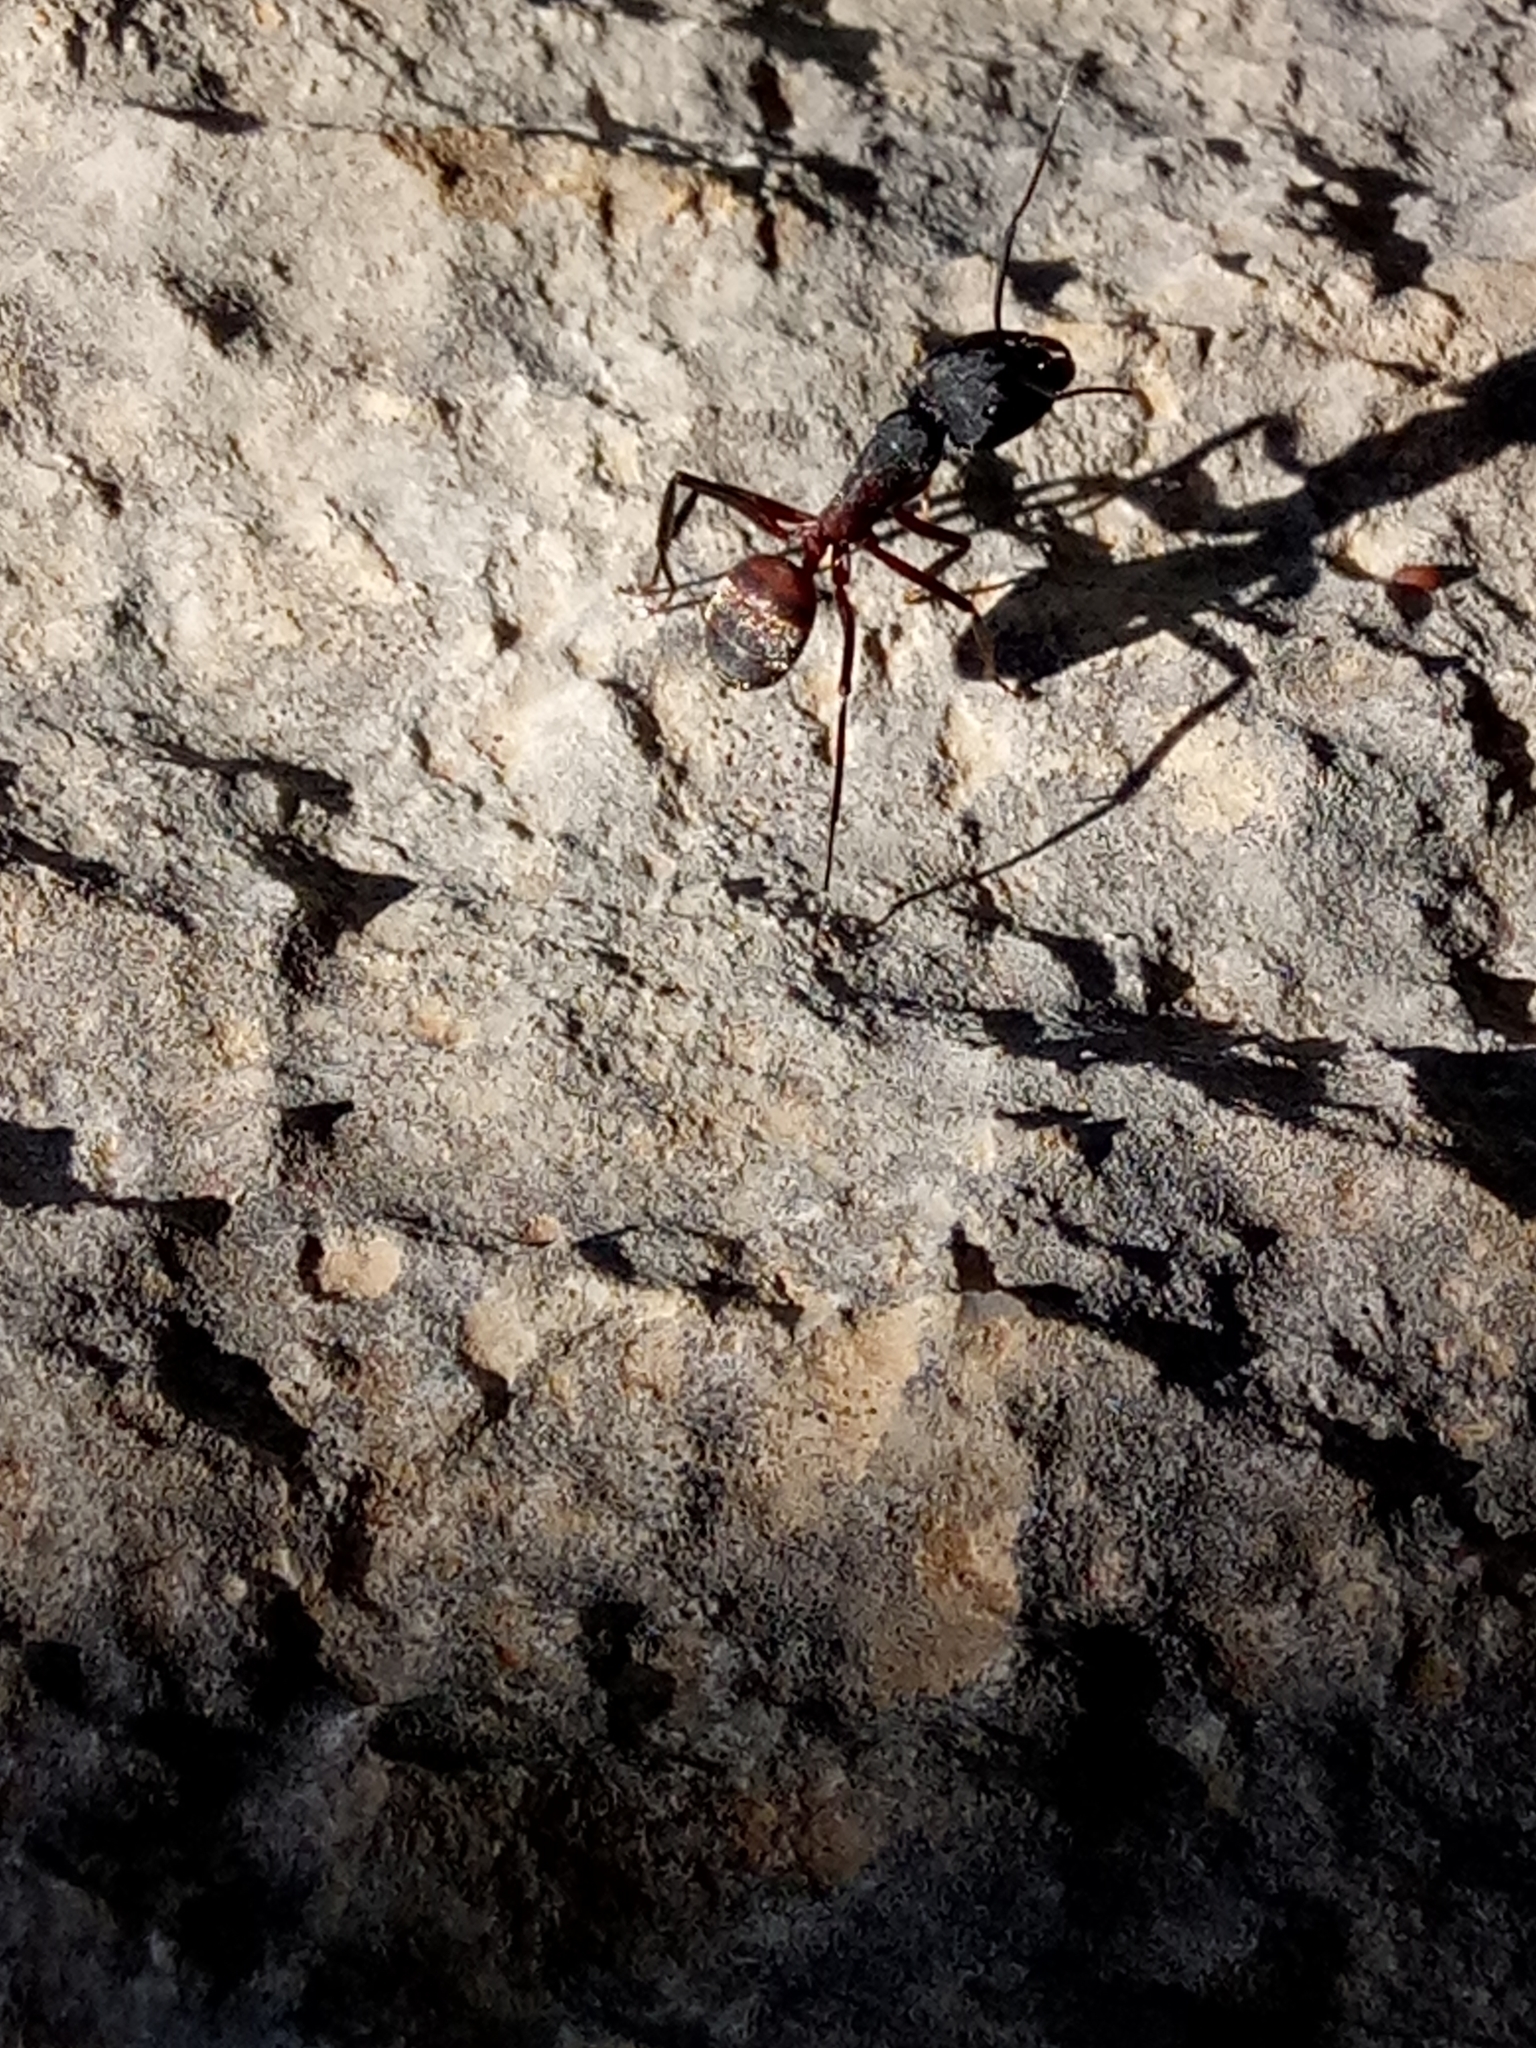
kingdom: Animalia
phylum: Arthropoda
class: Insecta
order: Hymenoptera
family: Formicidae
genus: Camponotus
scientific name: Camponotus cruentatus
